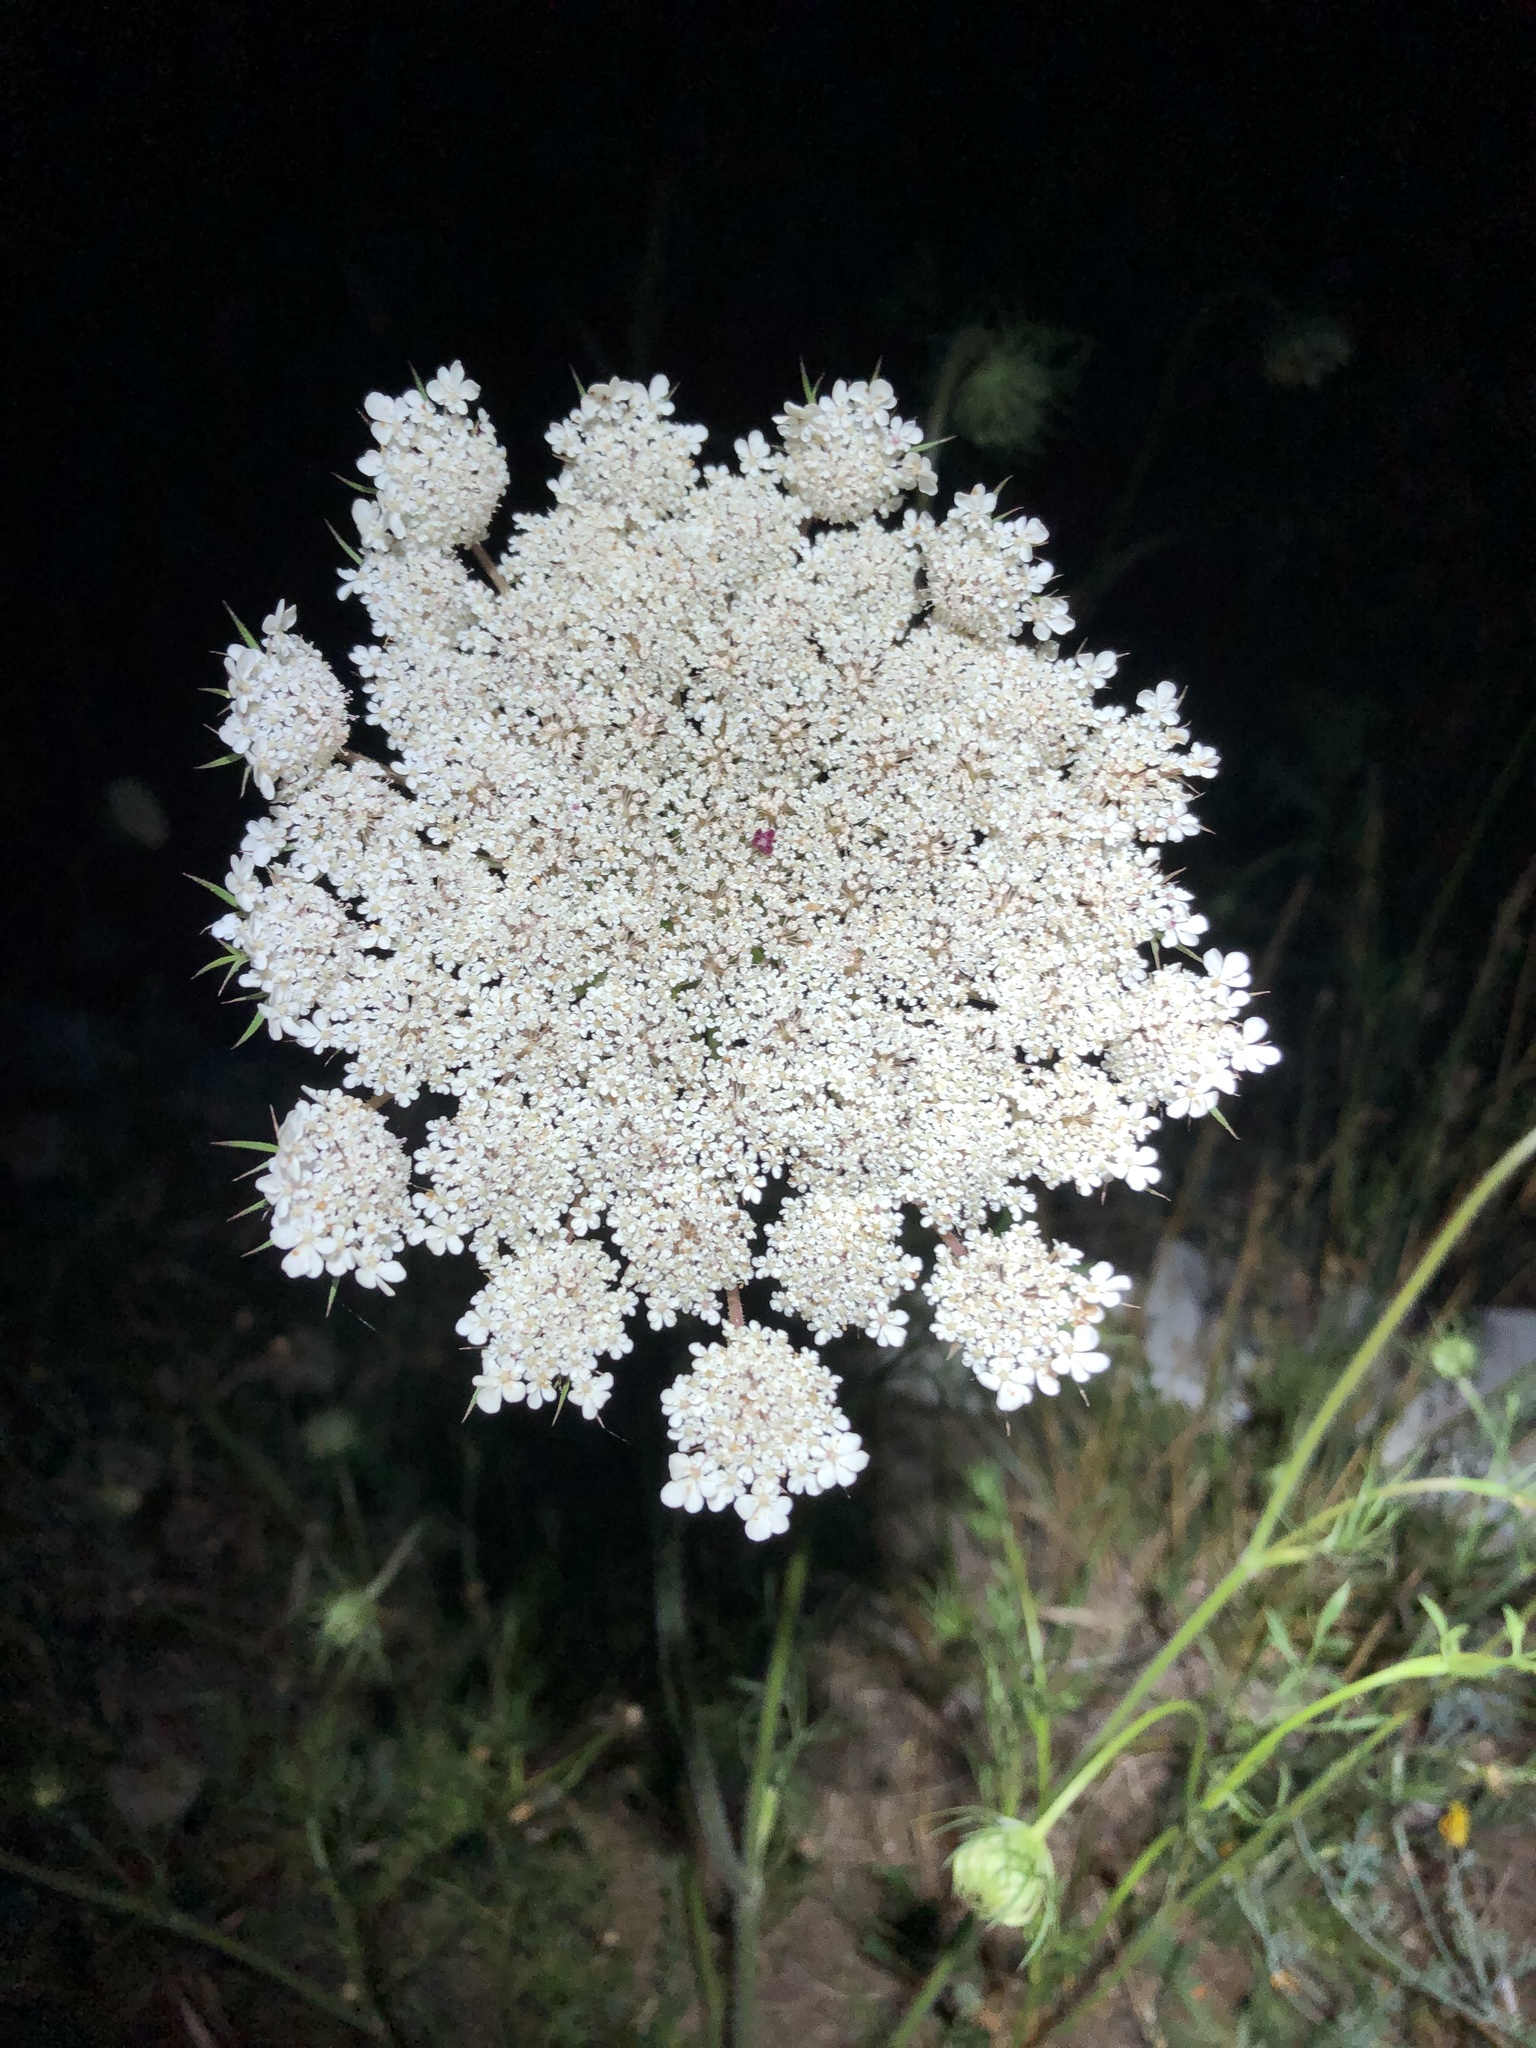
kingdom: Plantae
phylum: Tracheophyta
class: Magnoliopsida
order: Apiales
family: Apiaceae
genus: Daucus
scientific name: Daucus carota
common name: Wild carrot
